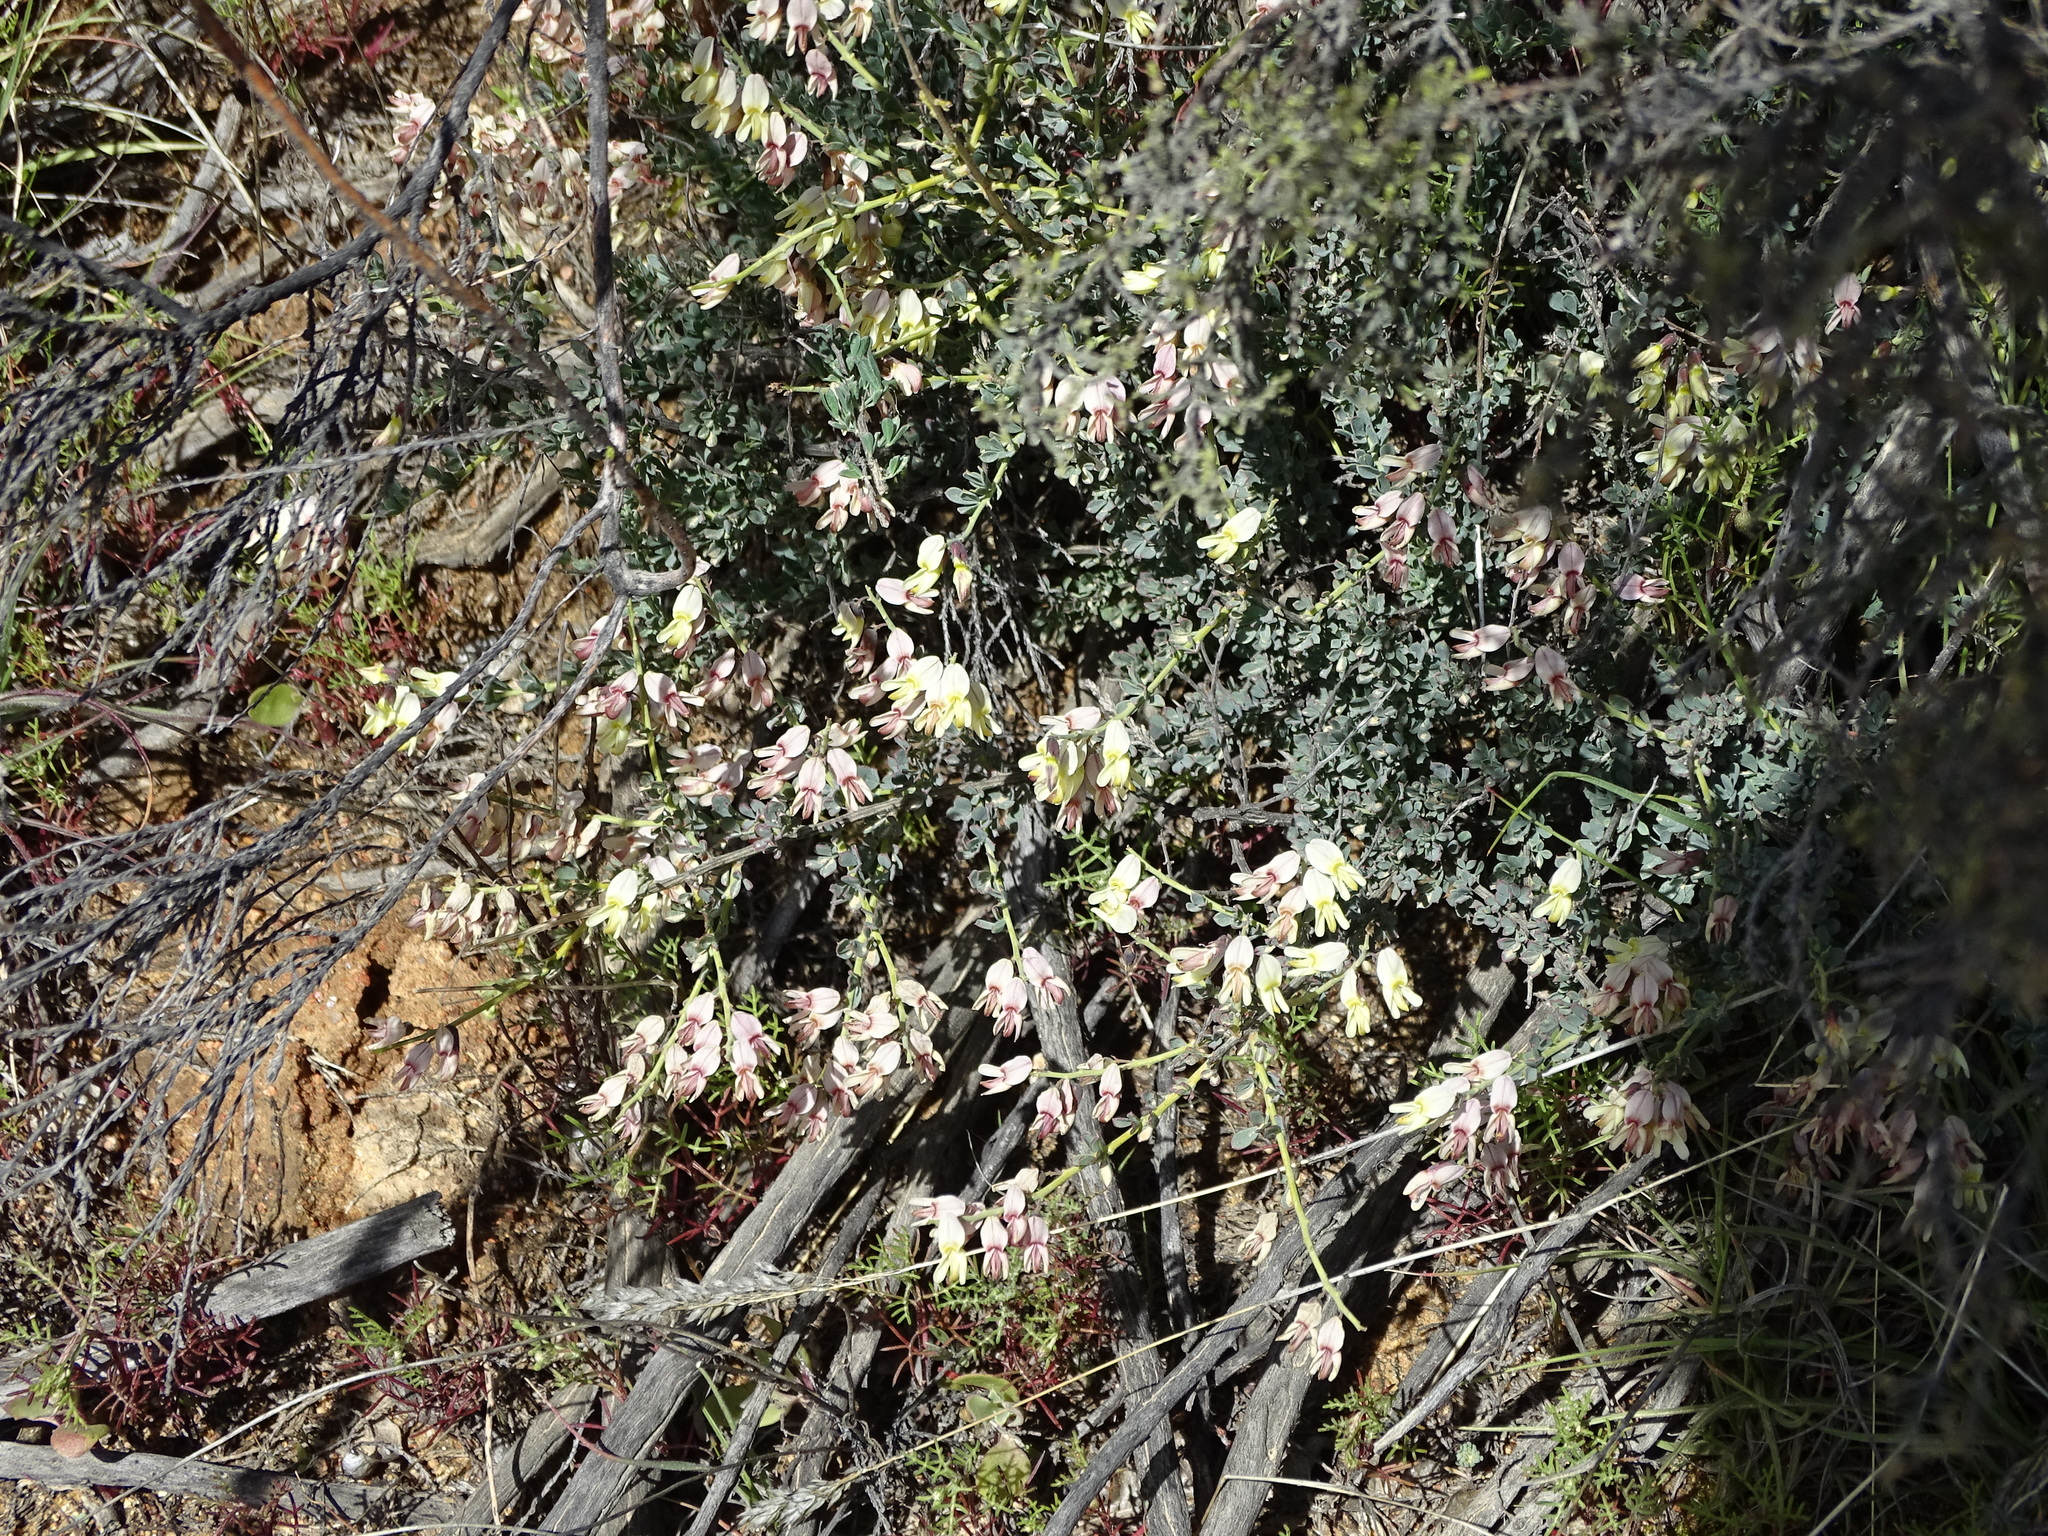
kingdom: Plantae
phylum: Tracheophyta
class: Magnoliopsida
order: Fabales
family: Fabaceae
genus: Wiborgia
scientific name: Wiborgia sericea
